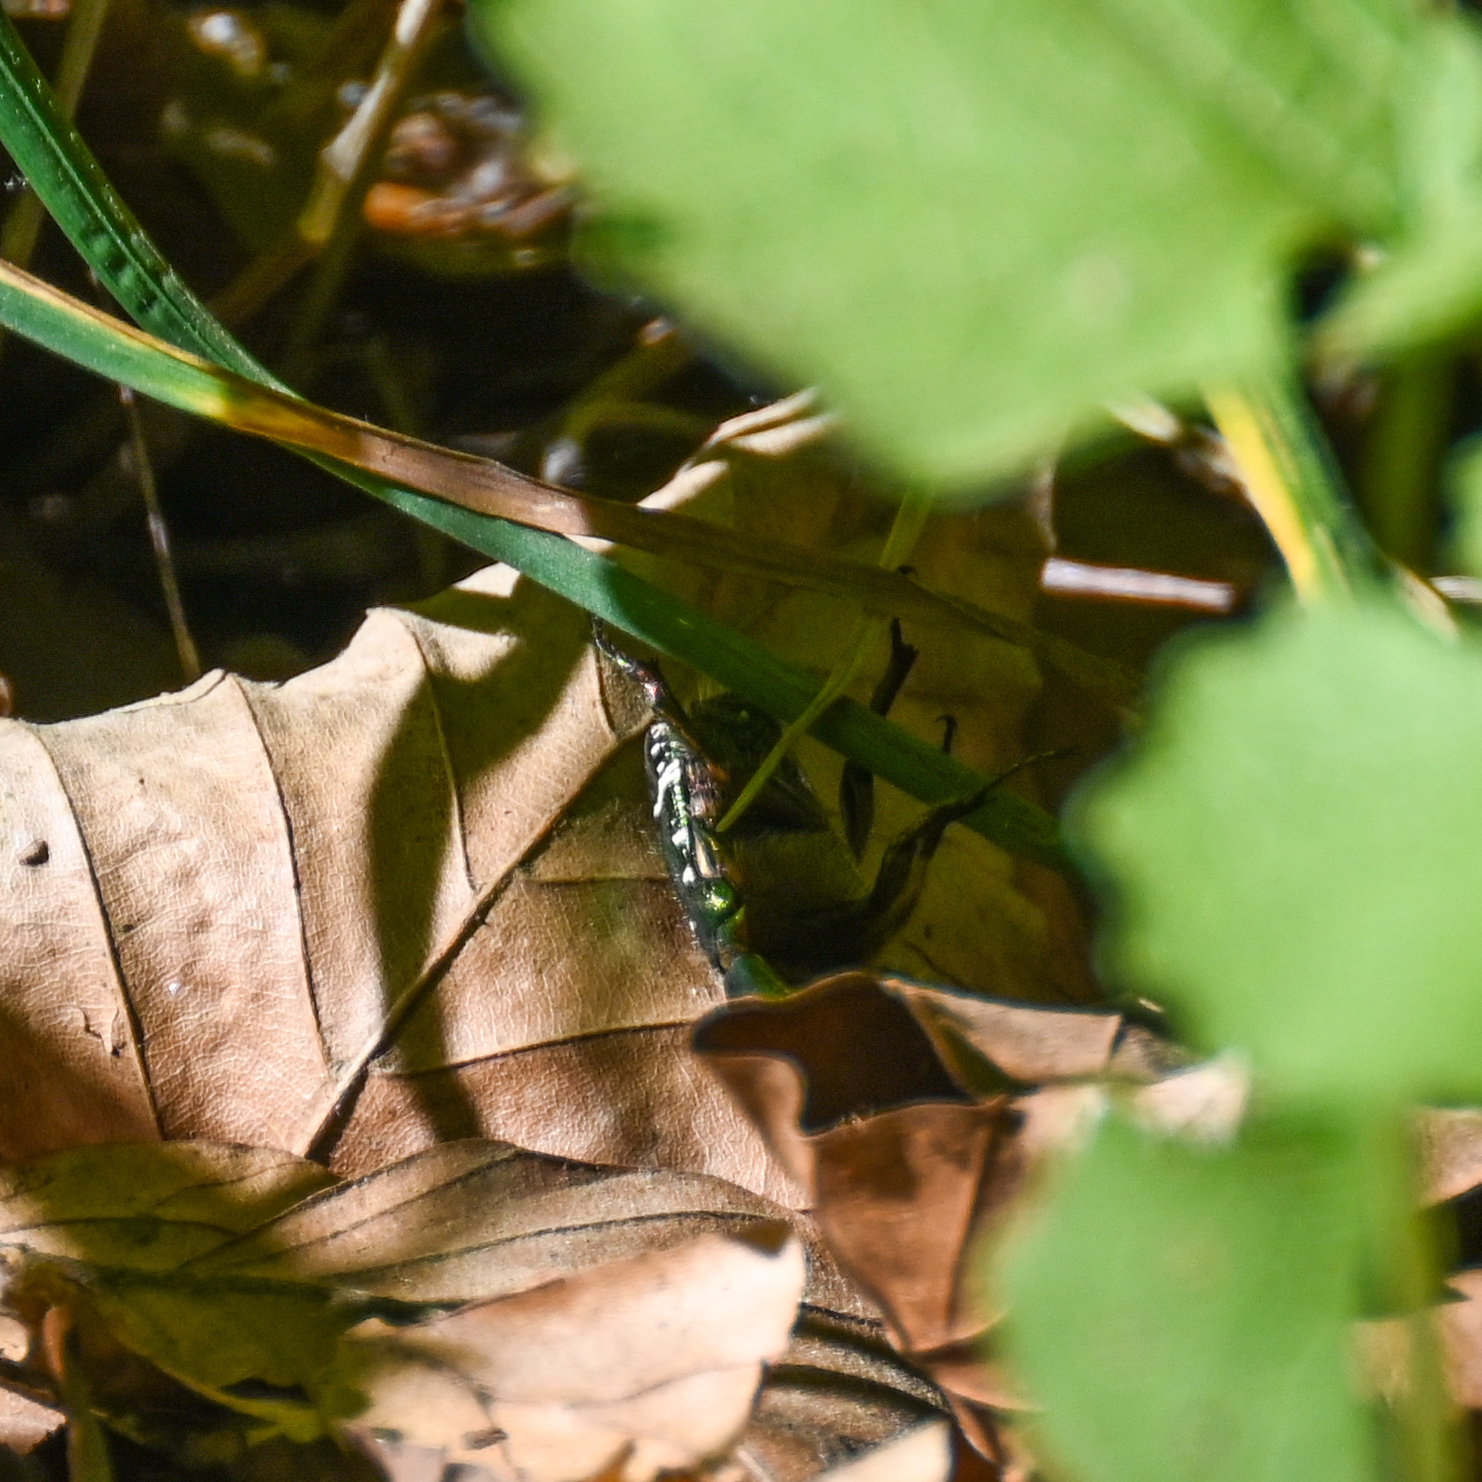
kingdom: Animalia
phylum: Arthropoda
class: Insecta
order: Coleoptera
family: Scarabaeidae
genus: Cetonia
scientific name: Cetonia aurata
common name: Rose chafer
